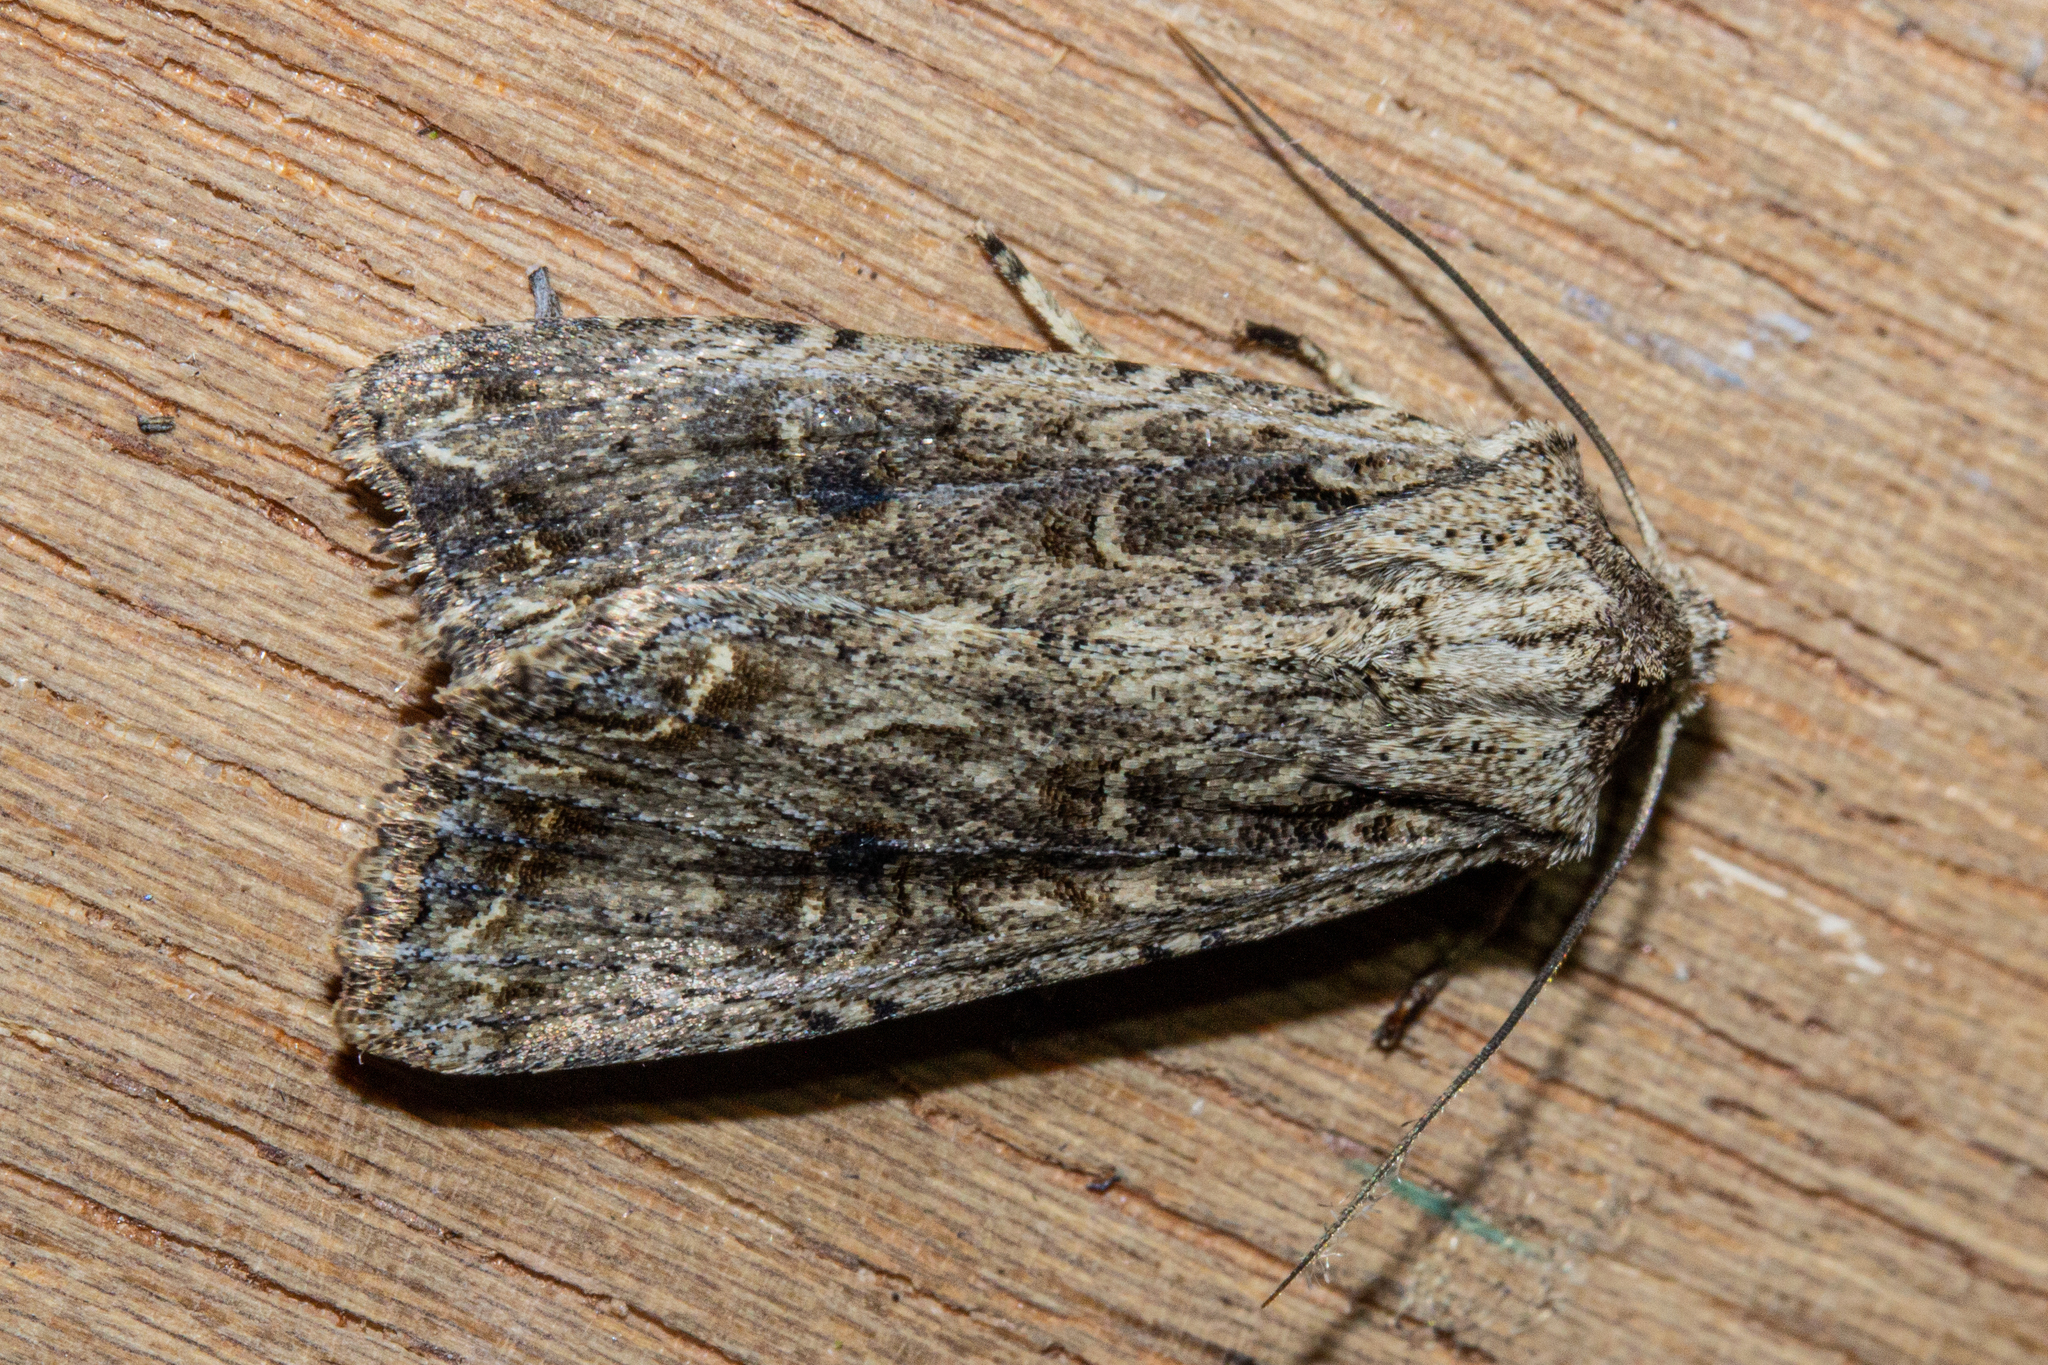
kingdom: Animalia
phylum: Arthropoda
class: Insecta
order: Lepidoptera
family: Noctuidae
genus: Ichneutica
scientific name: Ichneutica morosa
